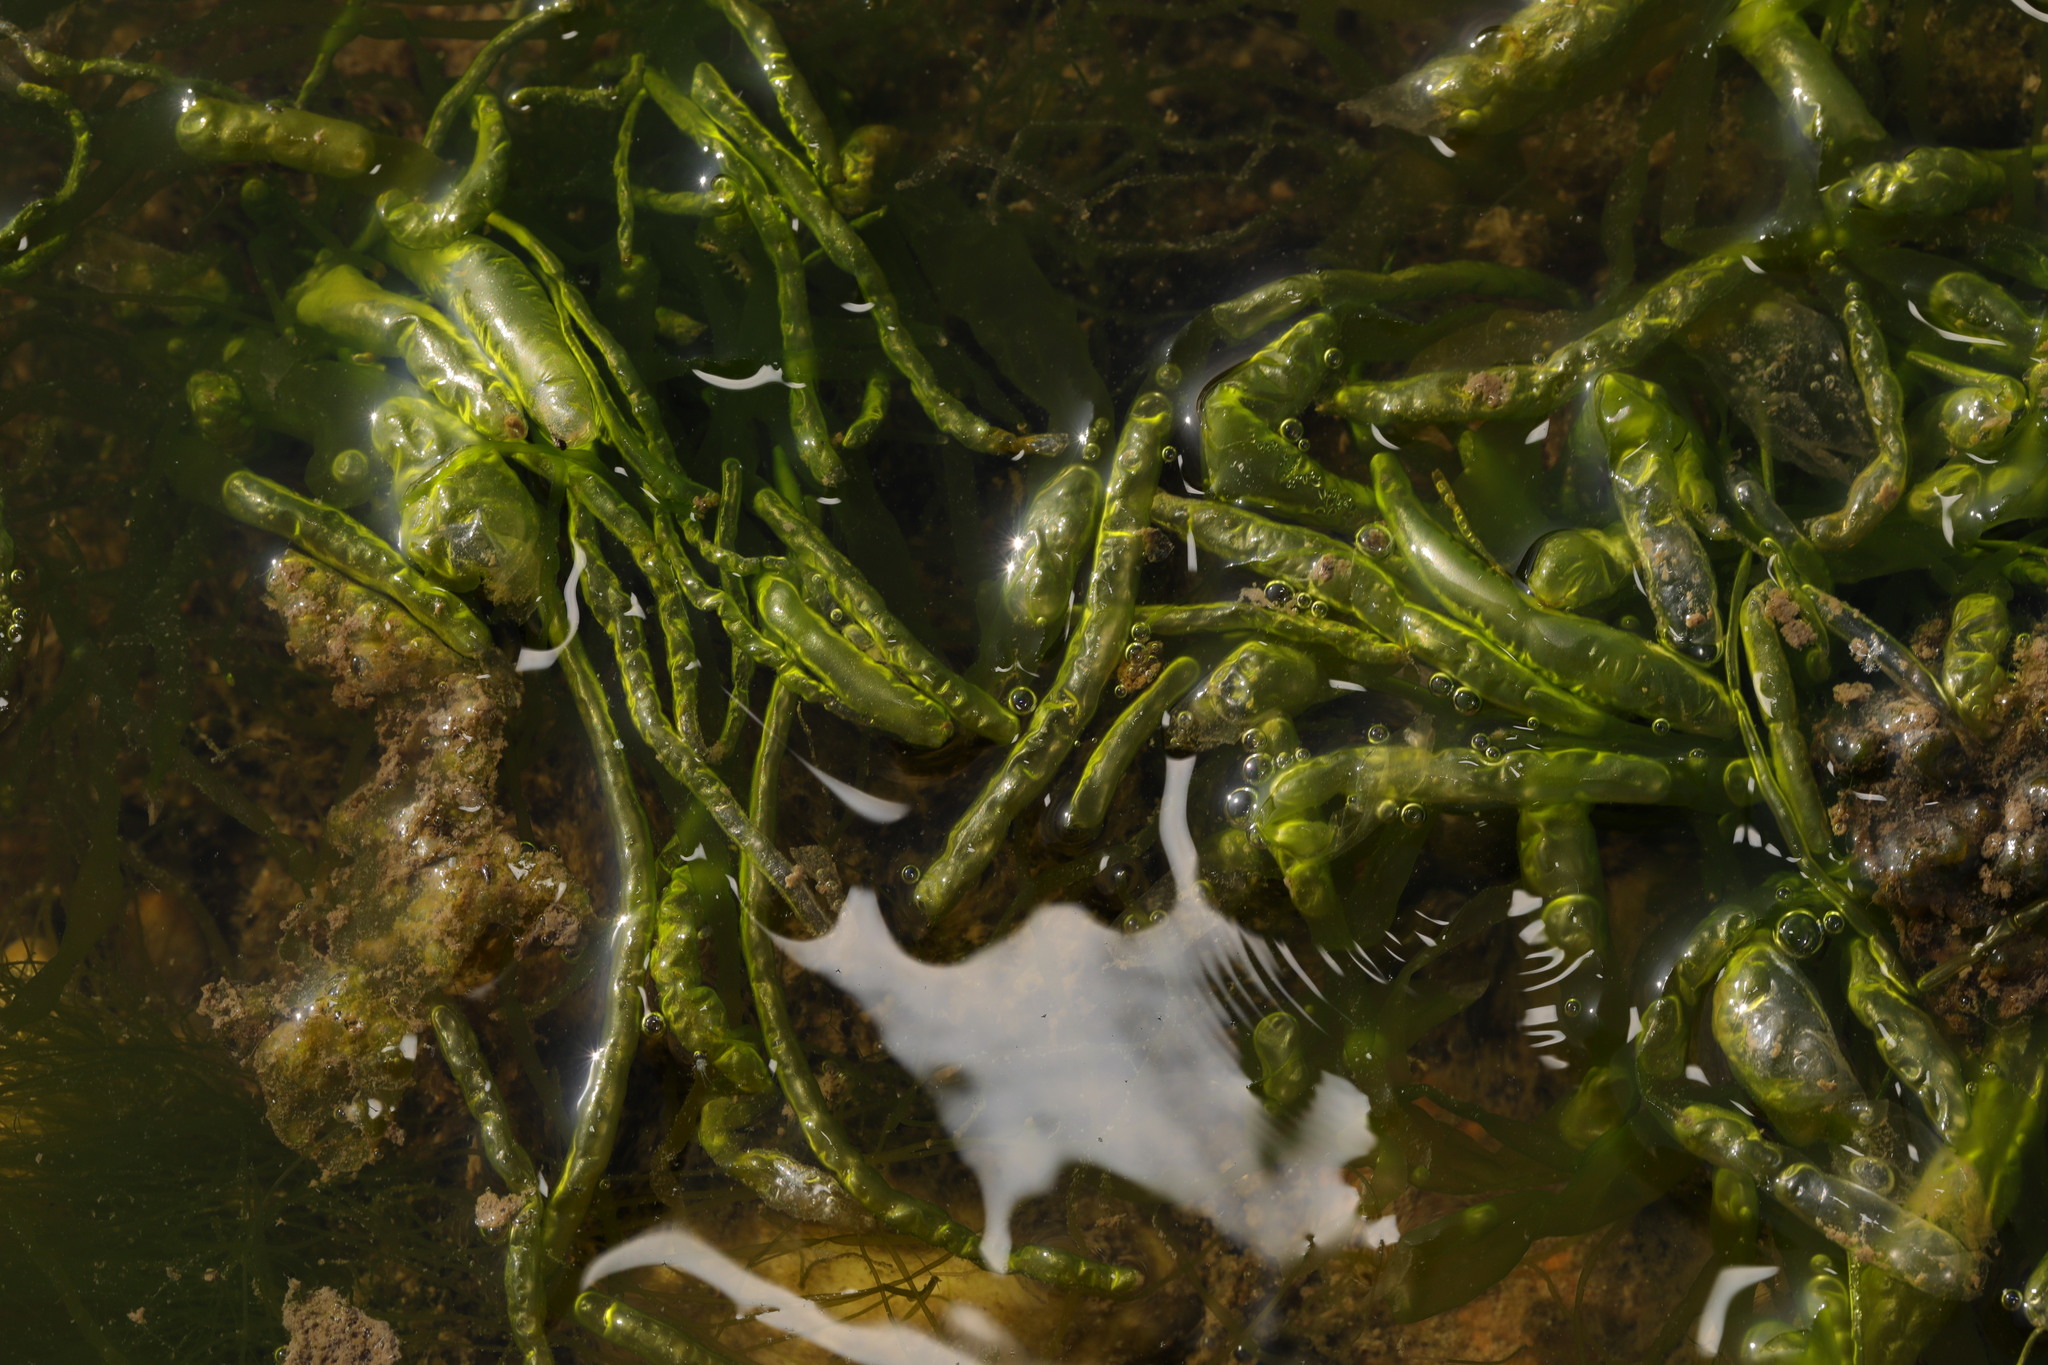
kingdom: Plantae
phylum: Chlorophyta
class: Ulvophyceae
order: Ulvales
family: Ulvaceae
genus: Ulva
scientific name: Ulva intestinalis
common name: Gut weed
